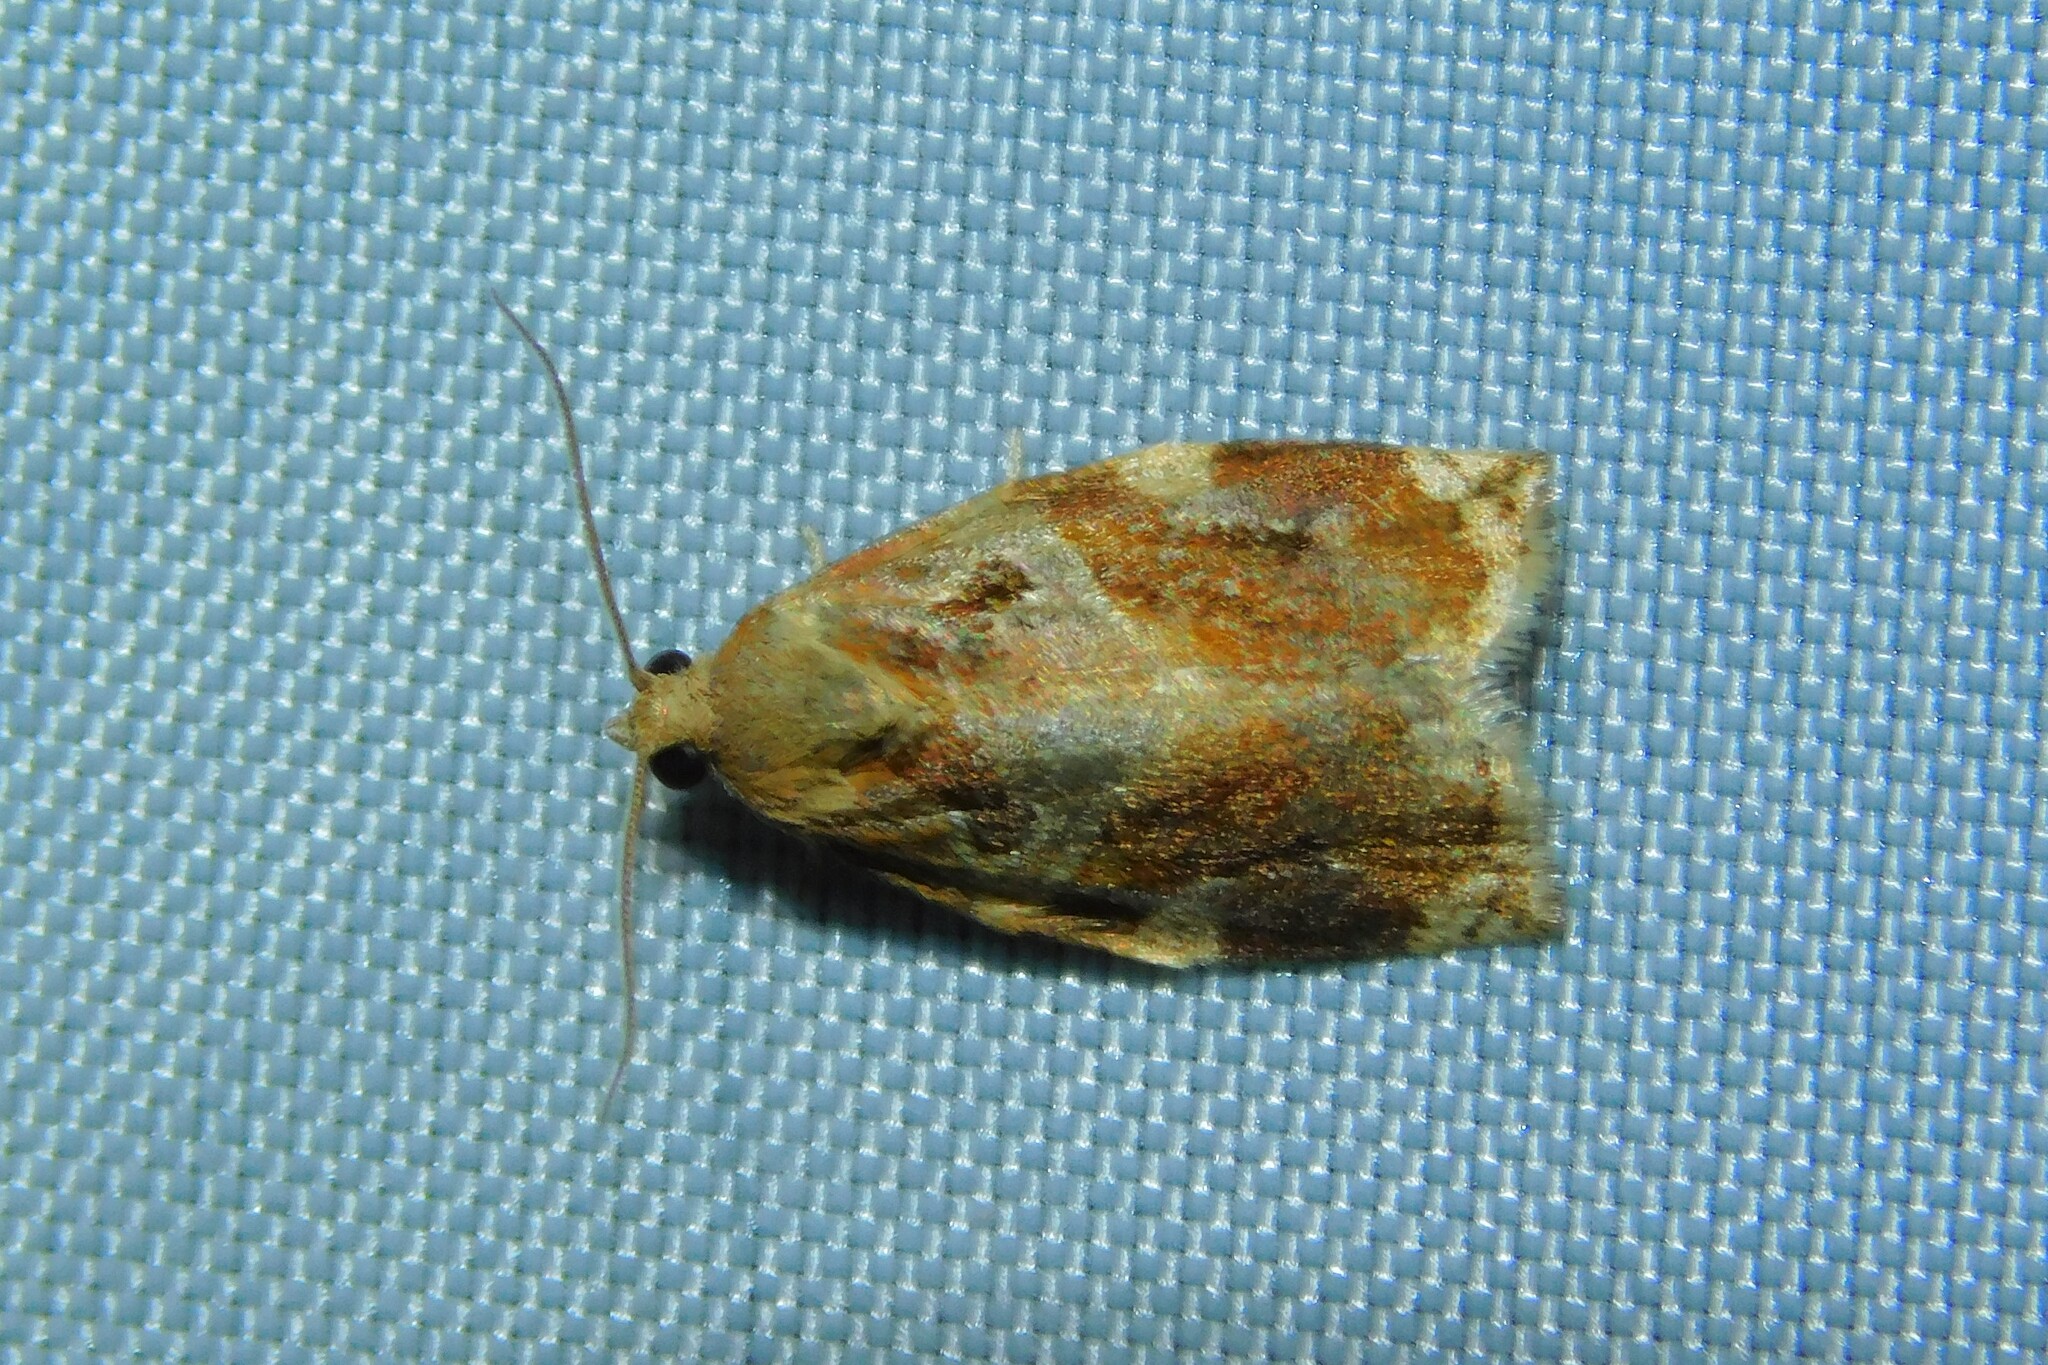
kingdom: Animalia
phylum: Arthropoda
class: Insecta
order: Lepidoptera
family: Tortricidae
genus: Archips
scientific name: Archips xylosteana
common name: Variegated golden tortrix
